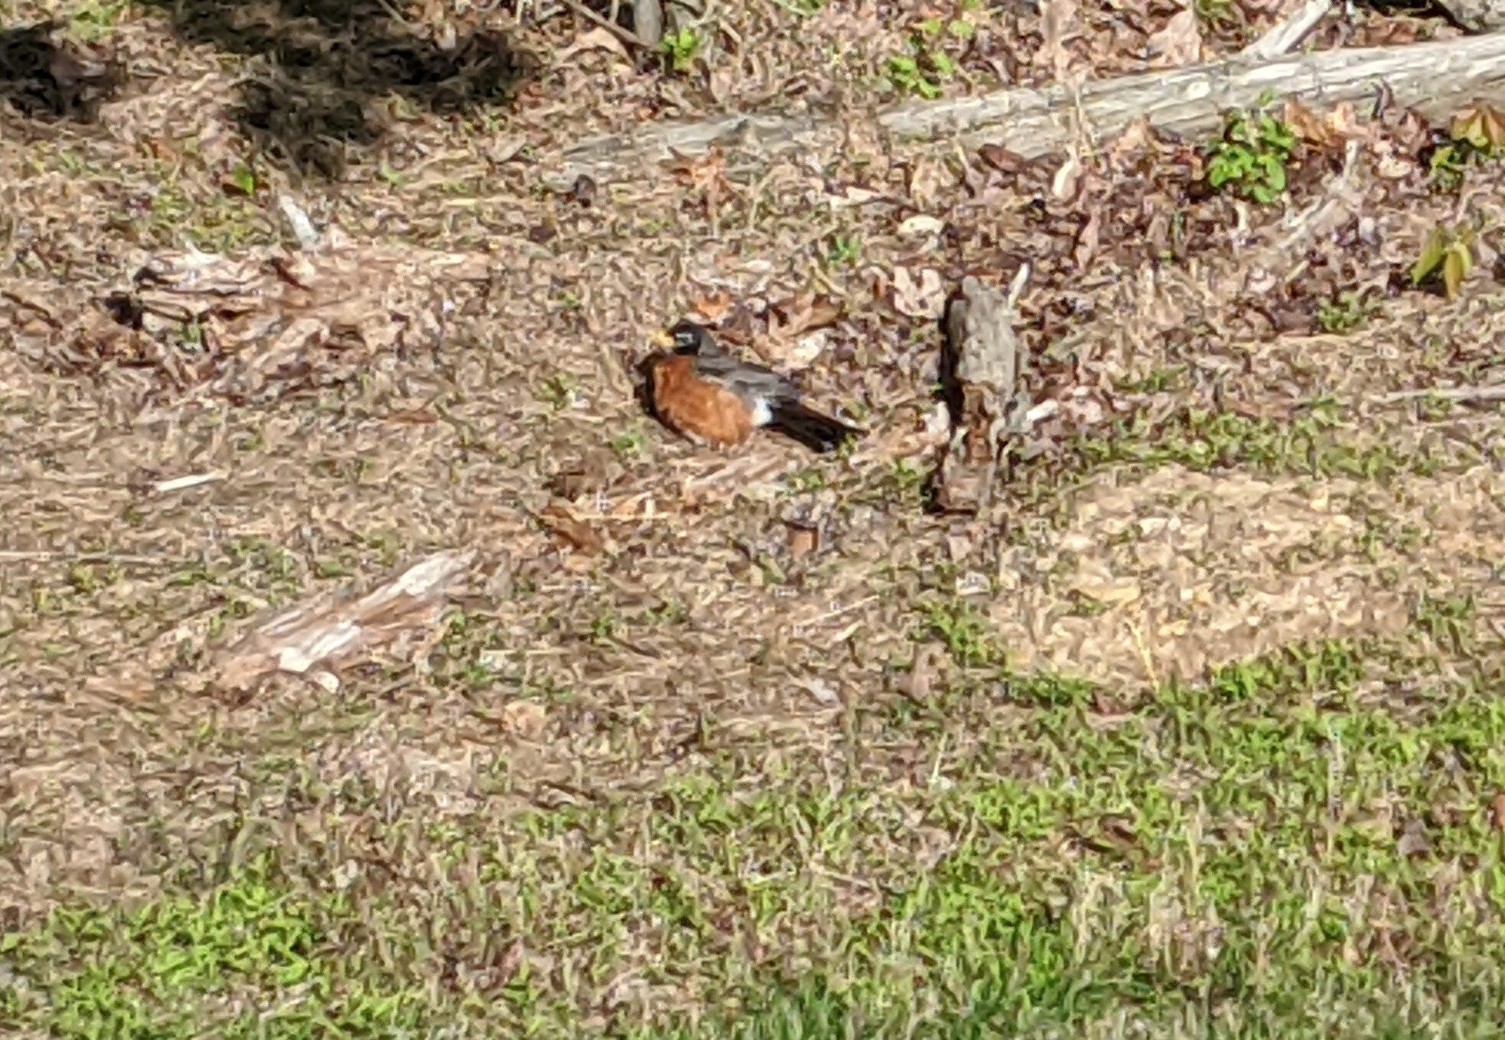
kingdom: Animalia
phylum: Chordata
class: Aves
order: Passeriformes
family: Turdidae
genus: Turdus
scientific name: Turdus migratorius
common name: American robin
